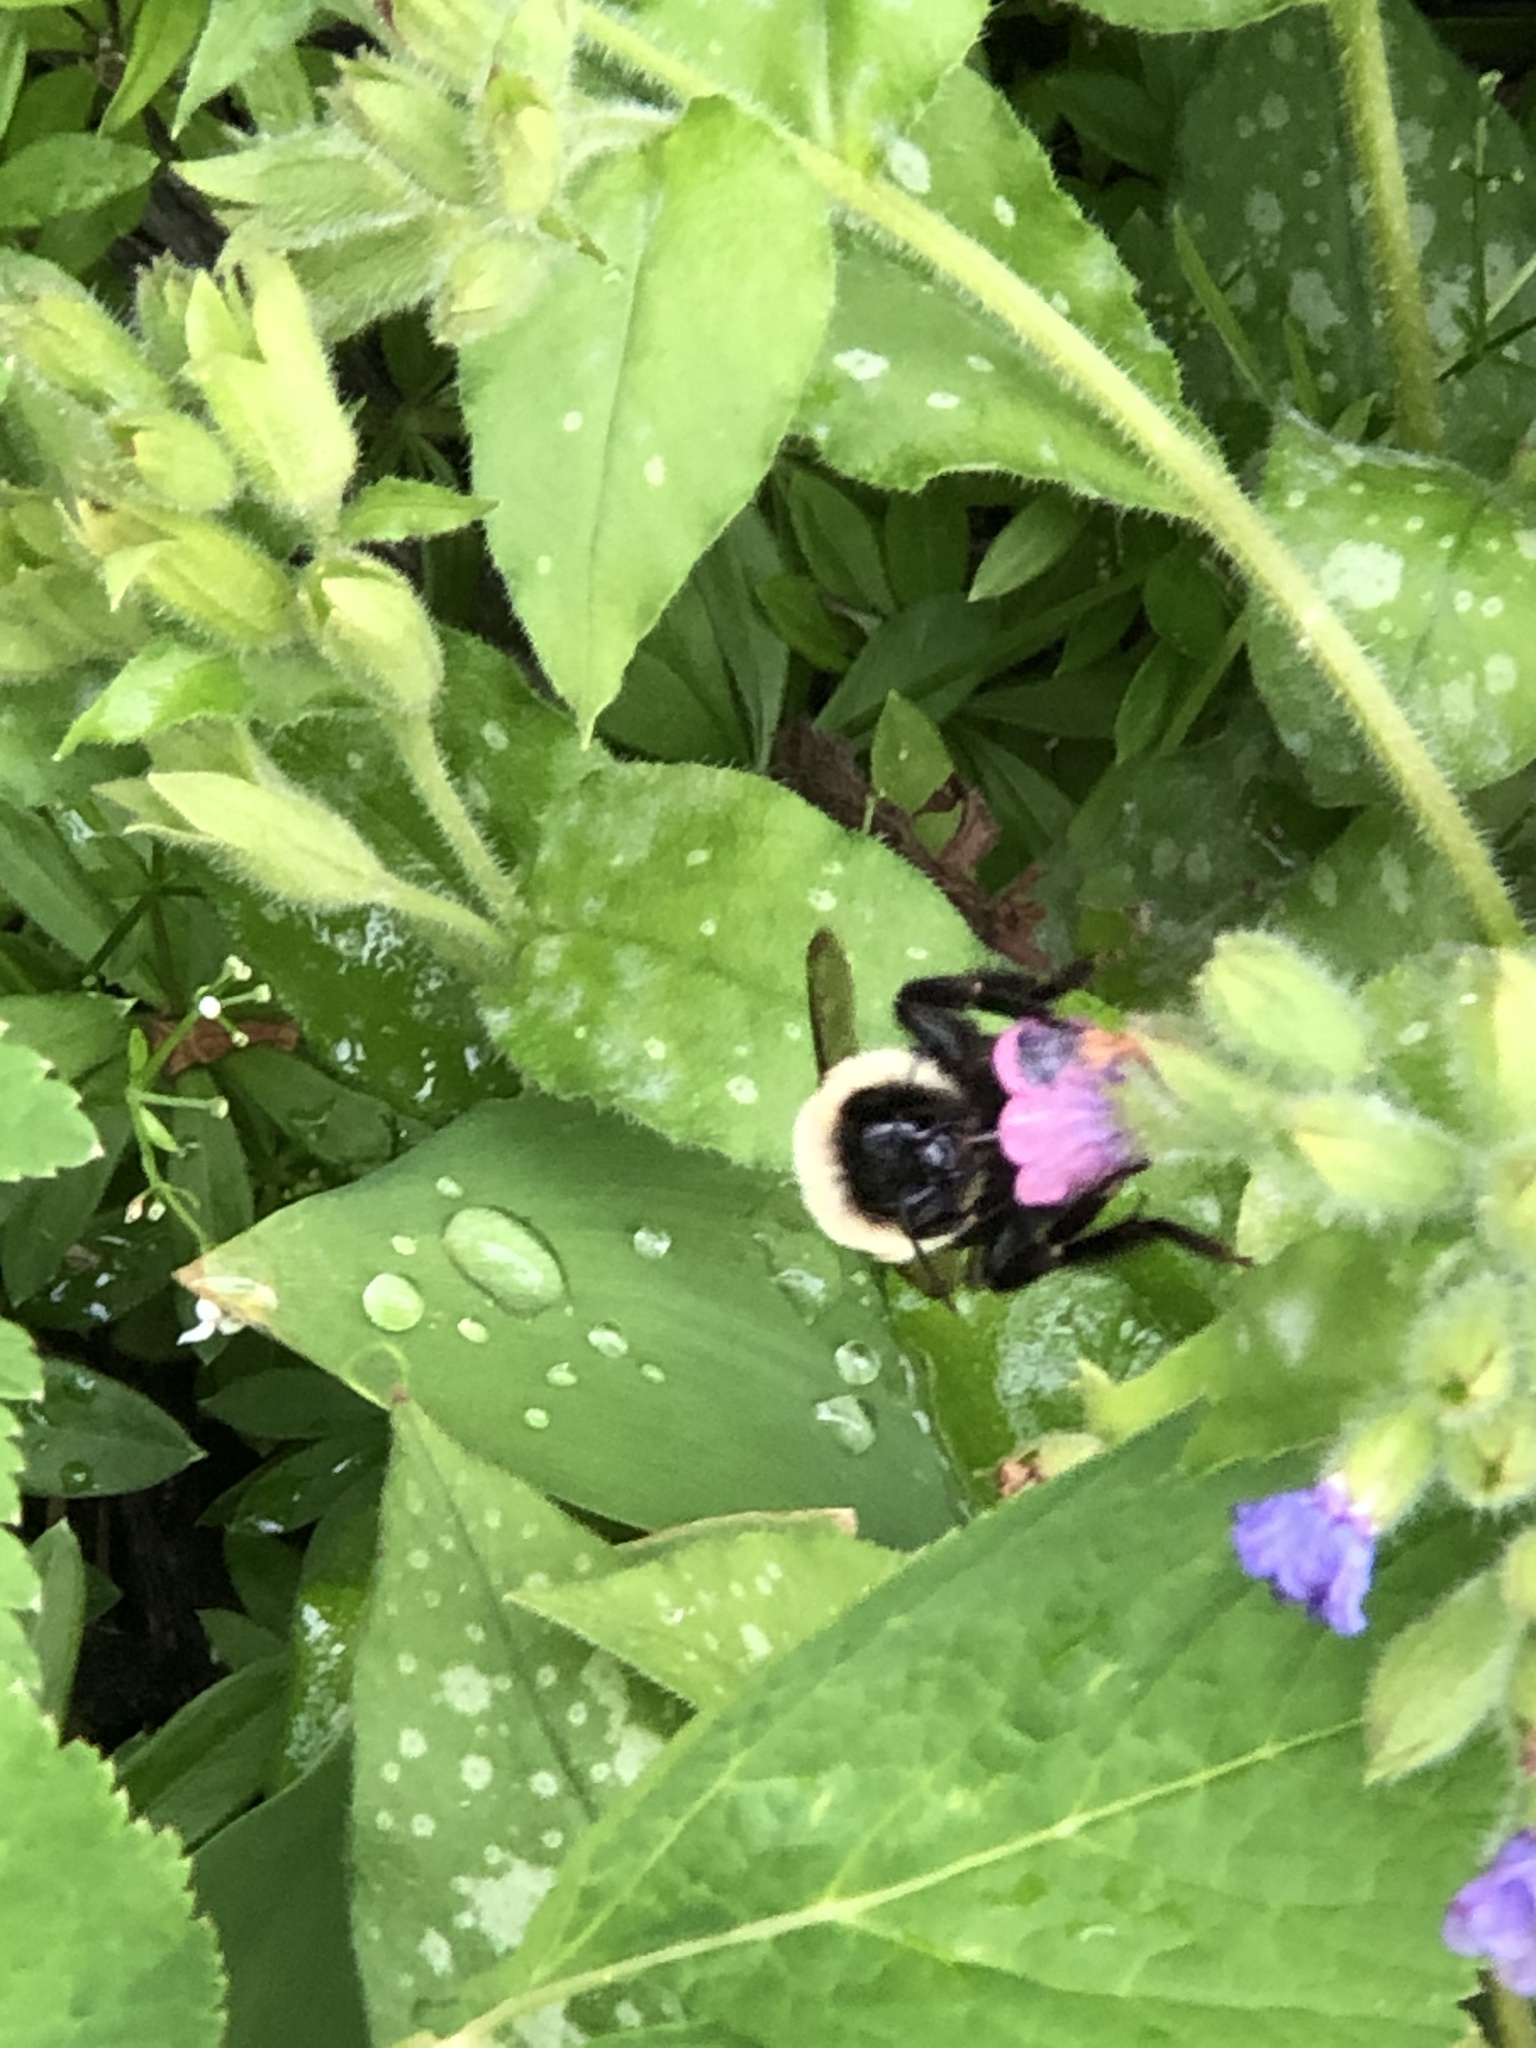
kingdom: Animalia
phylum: Arthropoda
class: Insecta
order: Hymenoptera
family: Apidae
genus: Bombus
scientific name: Bombus
